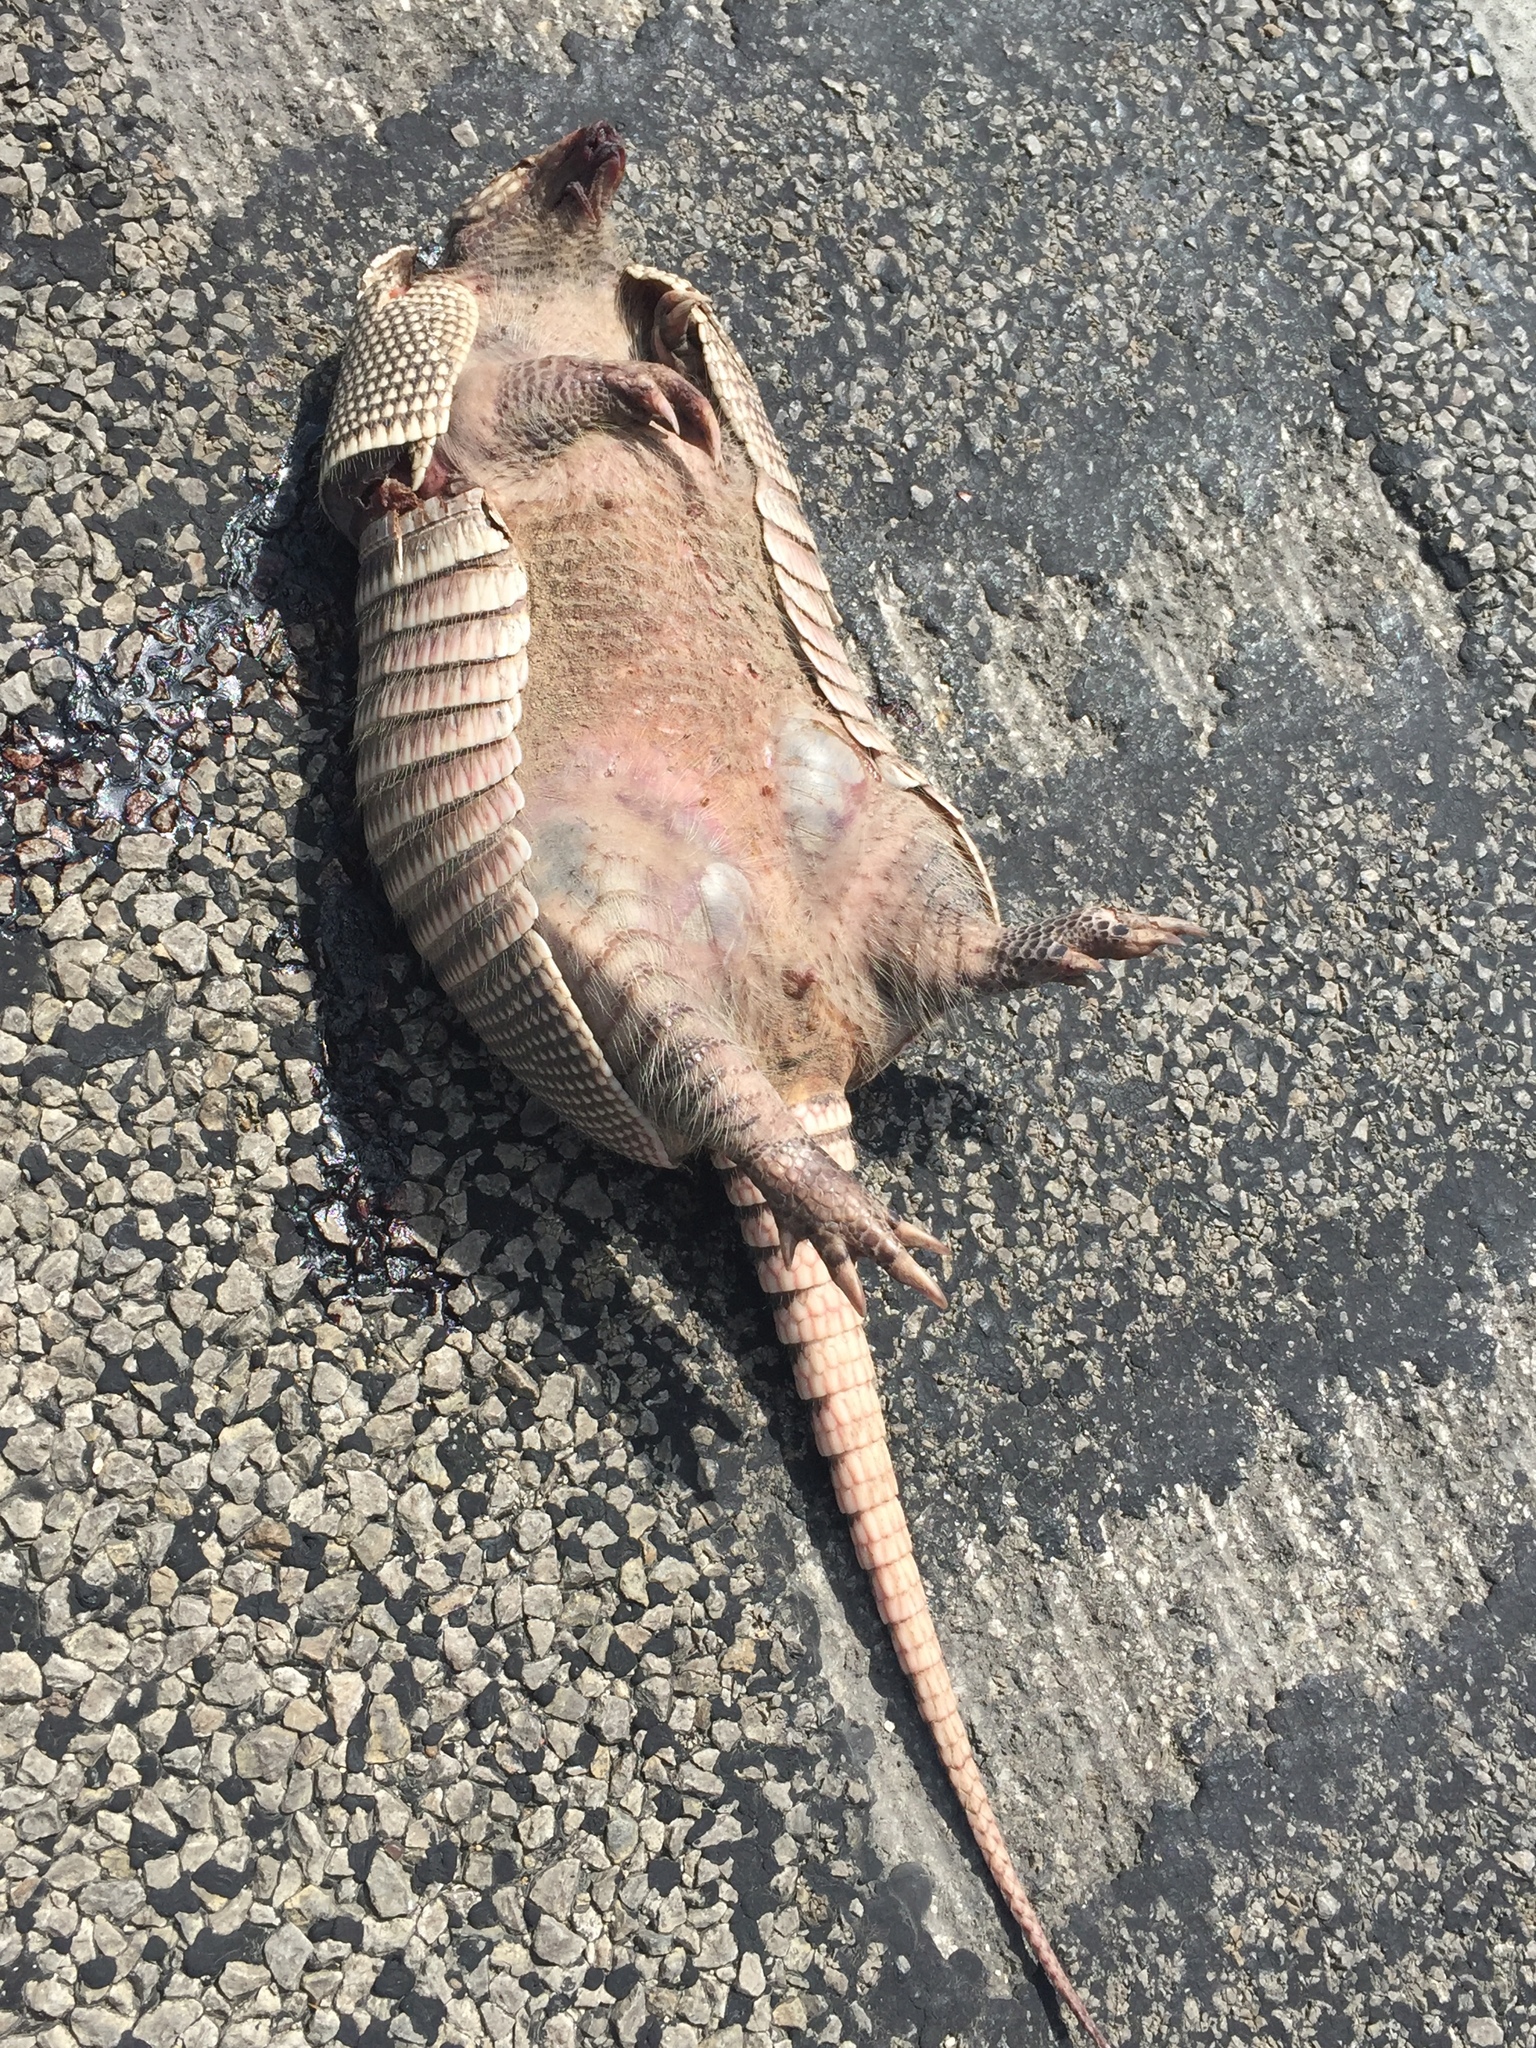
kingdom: Animalia
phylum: Chordata
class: Mammalia
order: Cingulata
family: Dasypodidae
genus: Dasypus
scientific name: Dasypus novemcinctus
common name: Nine-banded armadillo
